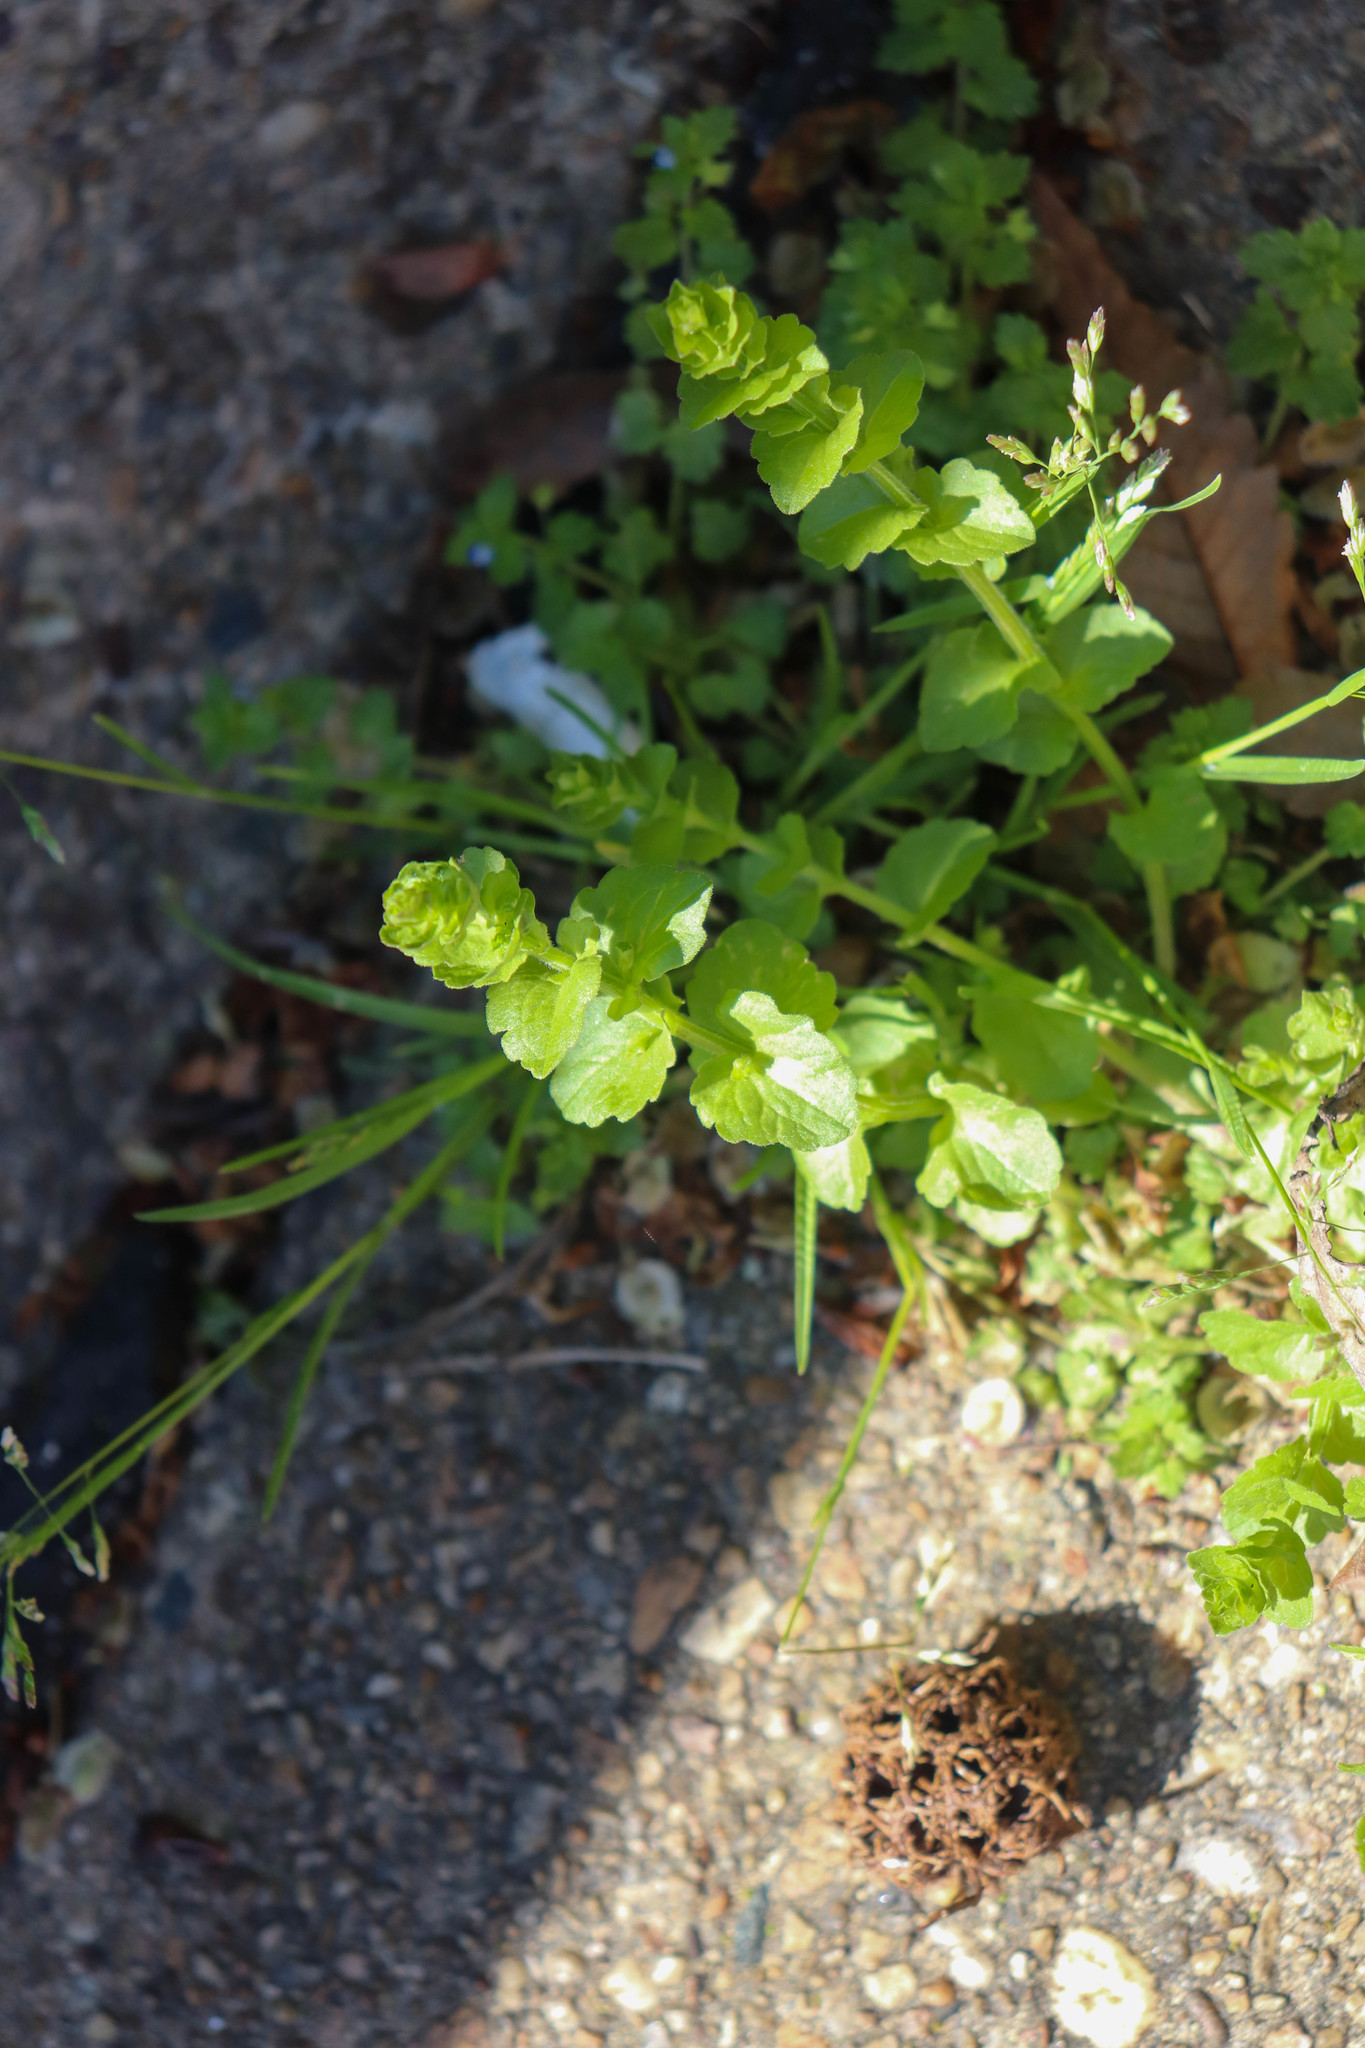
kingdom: Plantae
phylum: Tracheophyta
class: Magnoliopsida
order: Asterales
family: Campanulaceae
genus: Triodanis
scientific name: Triodanis perfoliata
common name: Clasping venus' looking-glass
